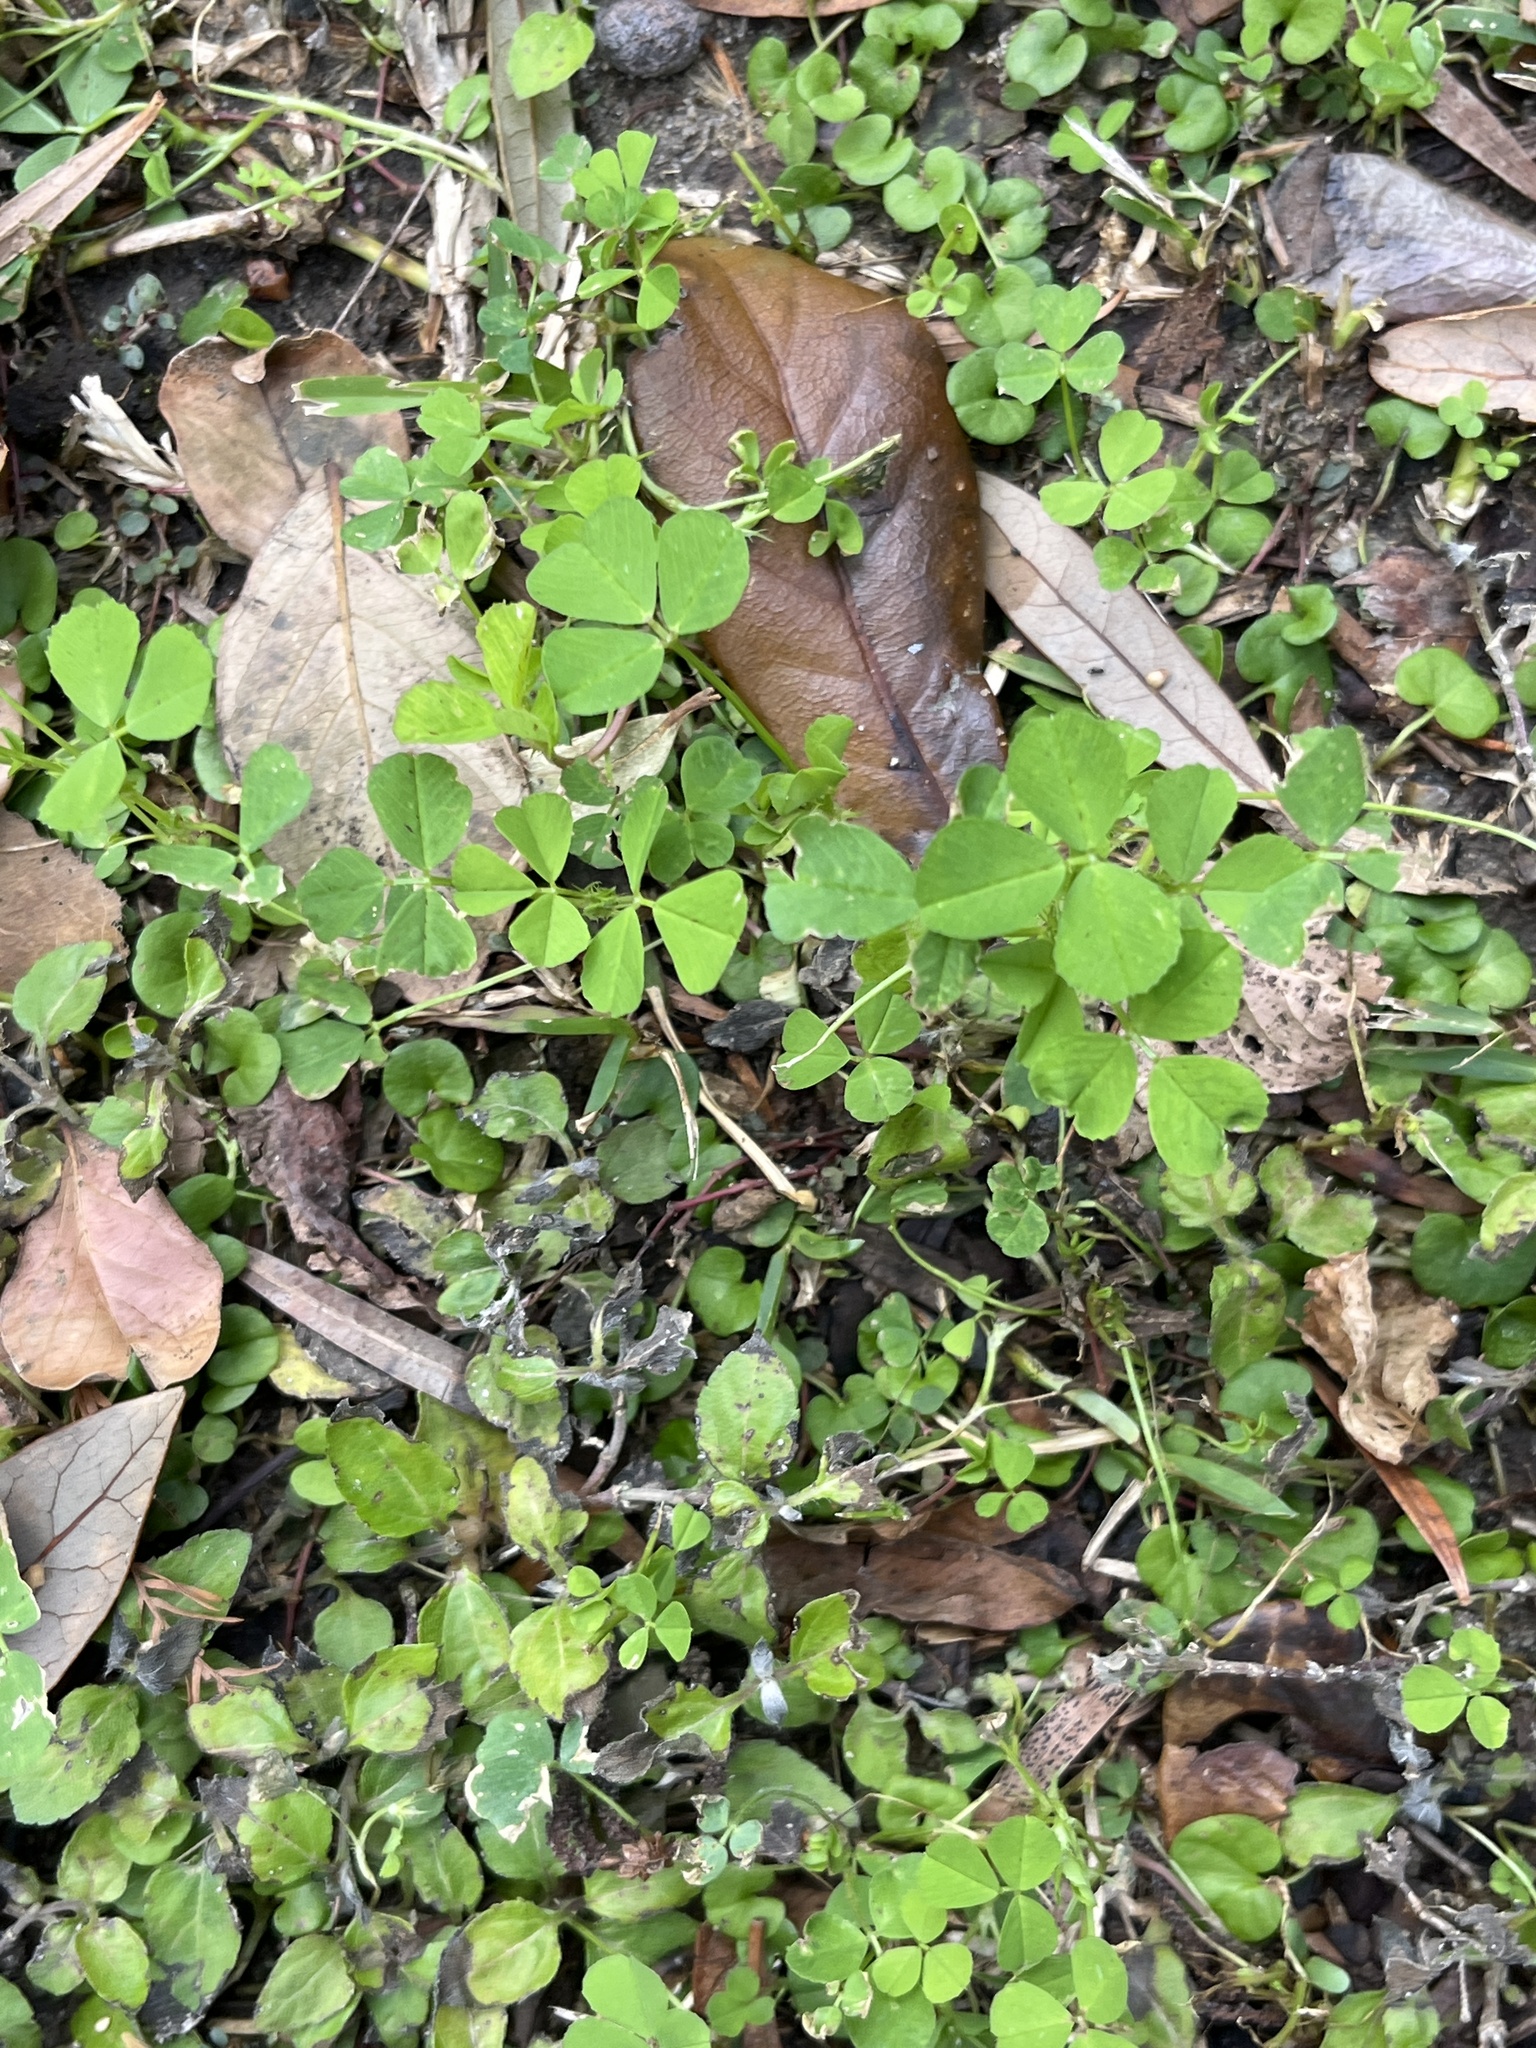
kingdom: Plantae
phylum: Tracheophyta
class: Magnoliopsida
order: Fabales
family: Fabaceae
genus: Medicago
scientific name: Medicago polymorpha
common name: Burclover
